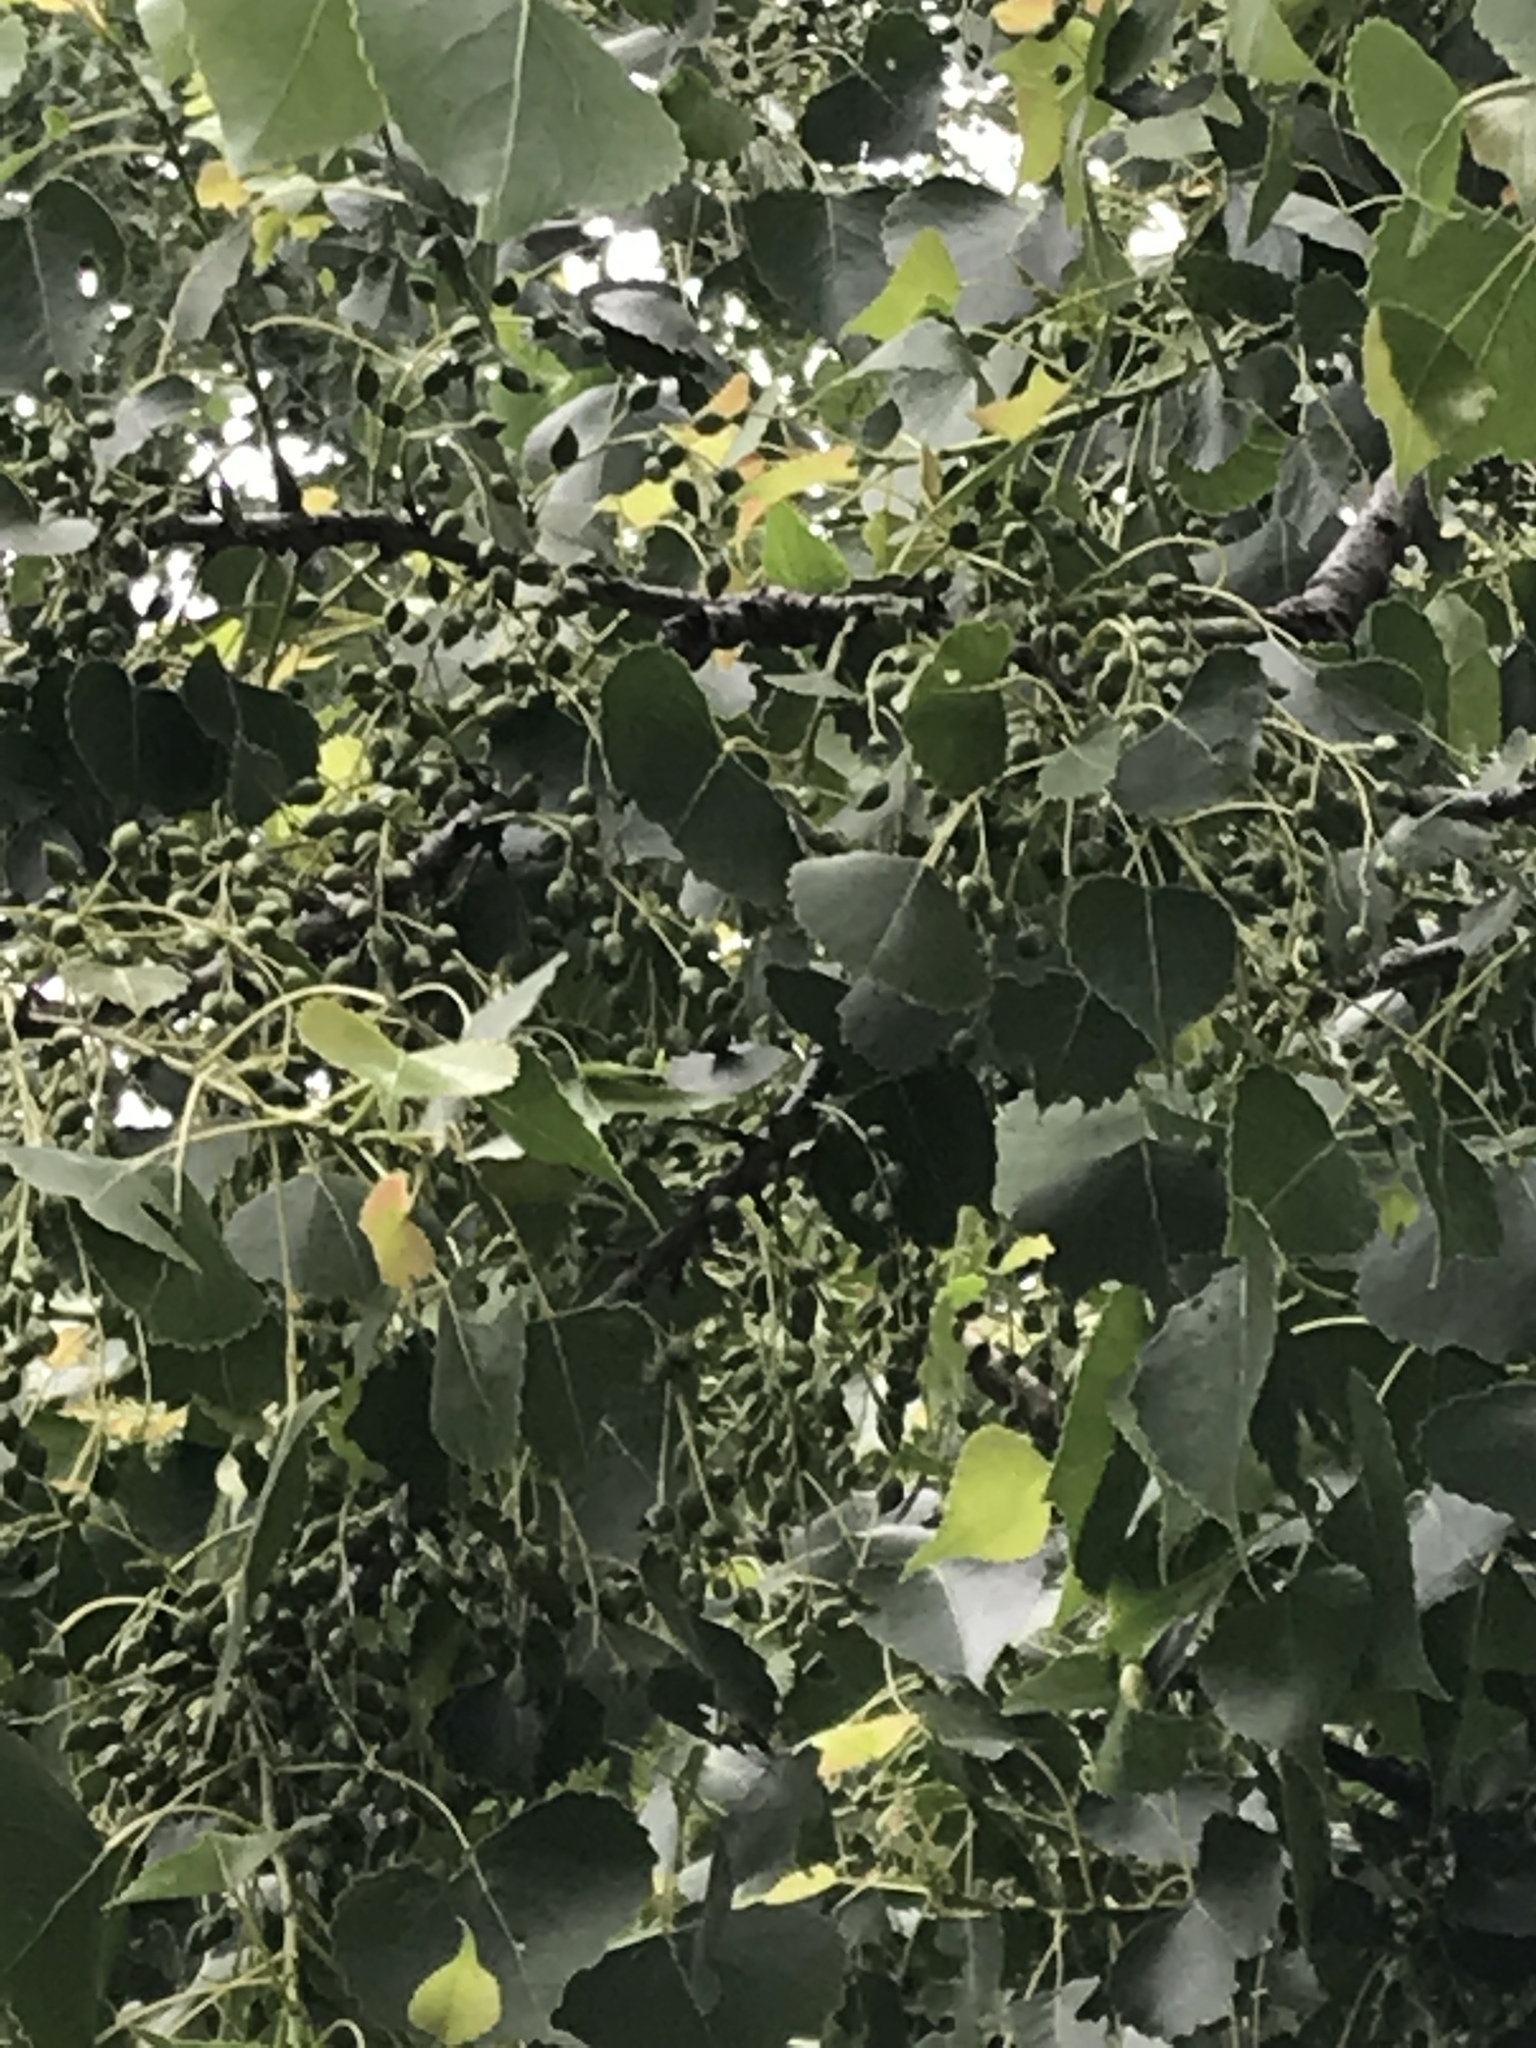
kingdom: Plantae
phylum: Tracheophyta
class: Magnoliopsida
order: Malpighiales
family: Salicaceae
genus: Populus
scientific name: Populus deltoides
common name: Eastern cottonwood
